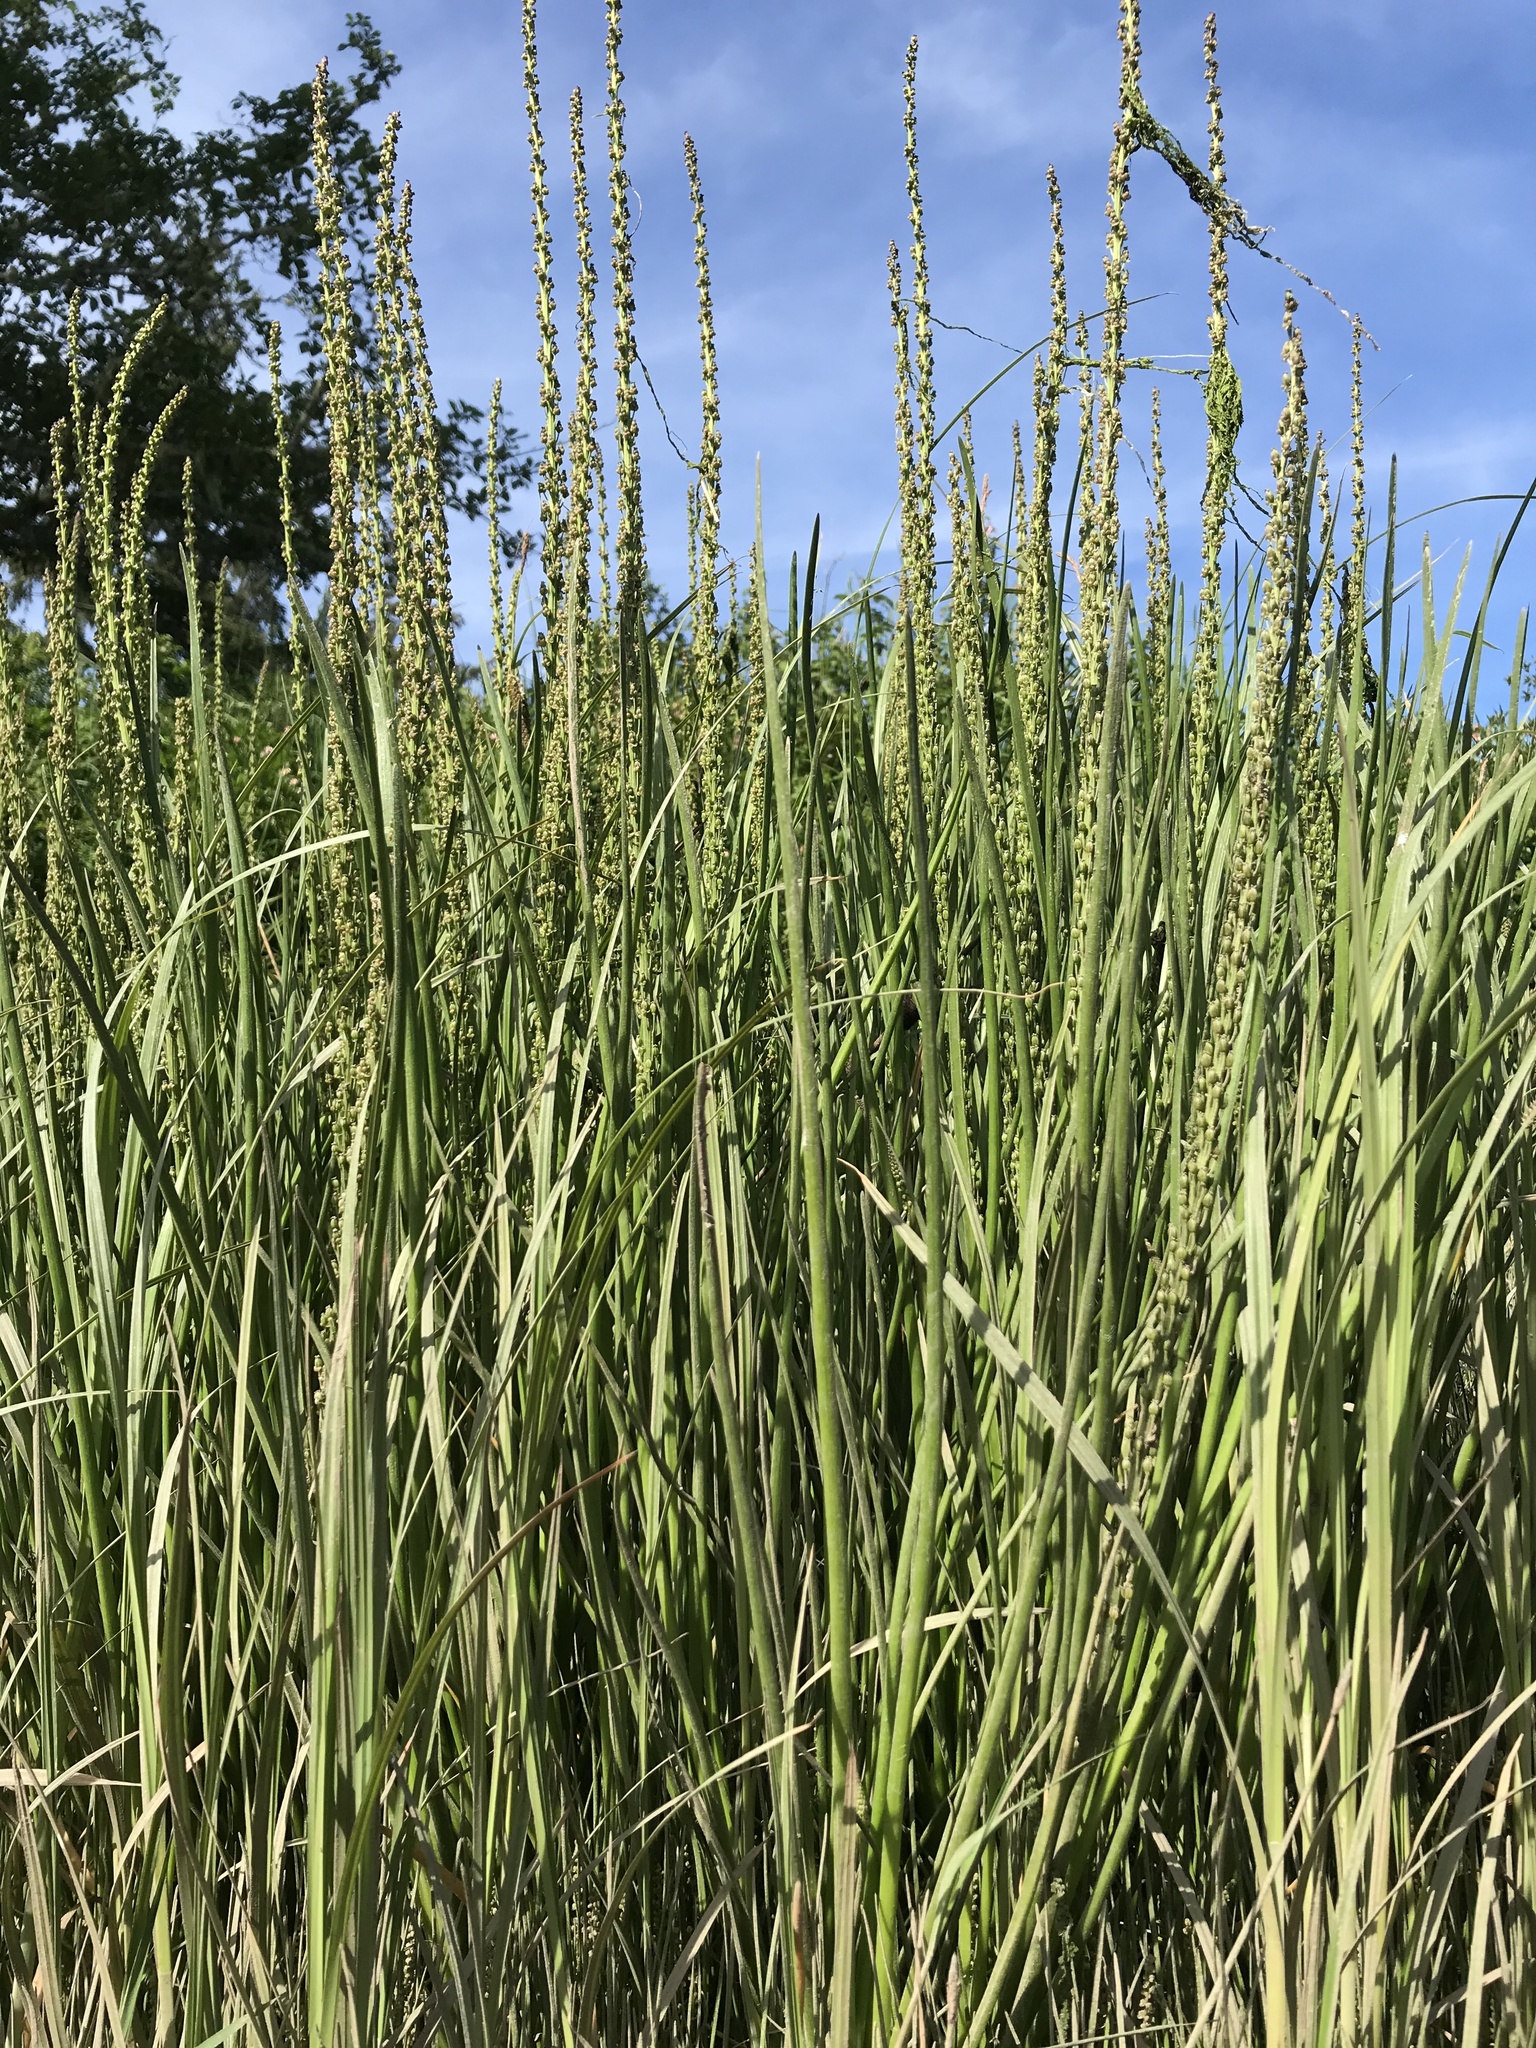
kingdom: Plantae
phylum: Tracheophyta
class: Liliopsida
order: Alismatales
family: Juncaginaceae
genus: Triglochin
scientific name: Triglochin maritima
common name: Sea arrowgrass
